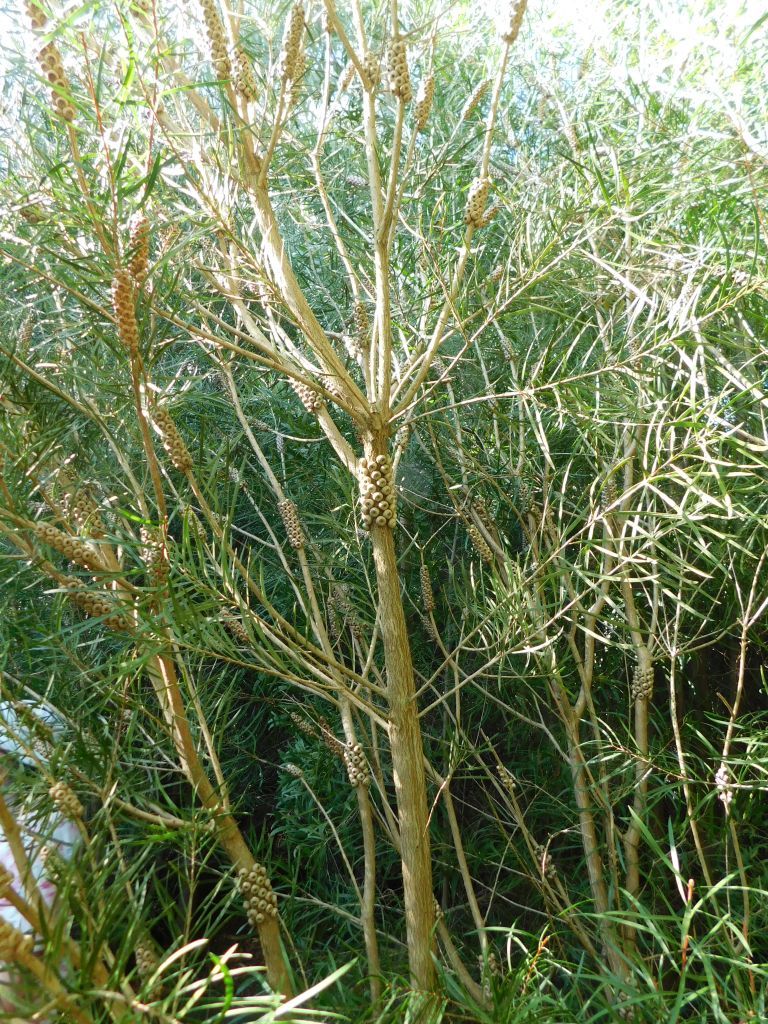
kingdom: Plantae
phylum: Tracheophyta
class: Magnoliopsida
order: Myrtales
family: Myrtaceae
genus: Callistemon
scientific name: Callistemon linearis
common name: Narrow-leaf bottlebrush
